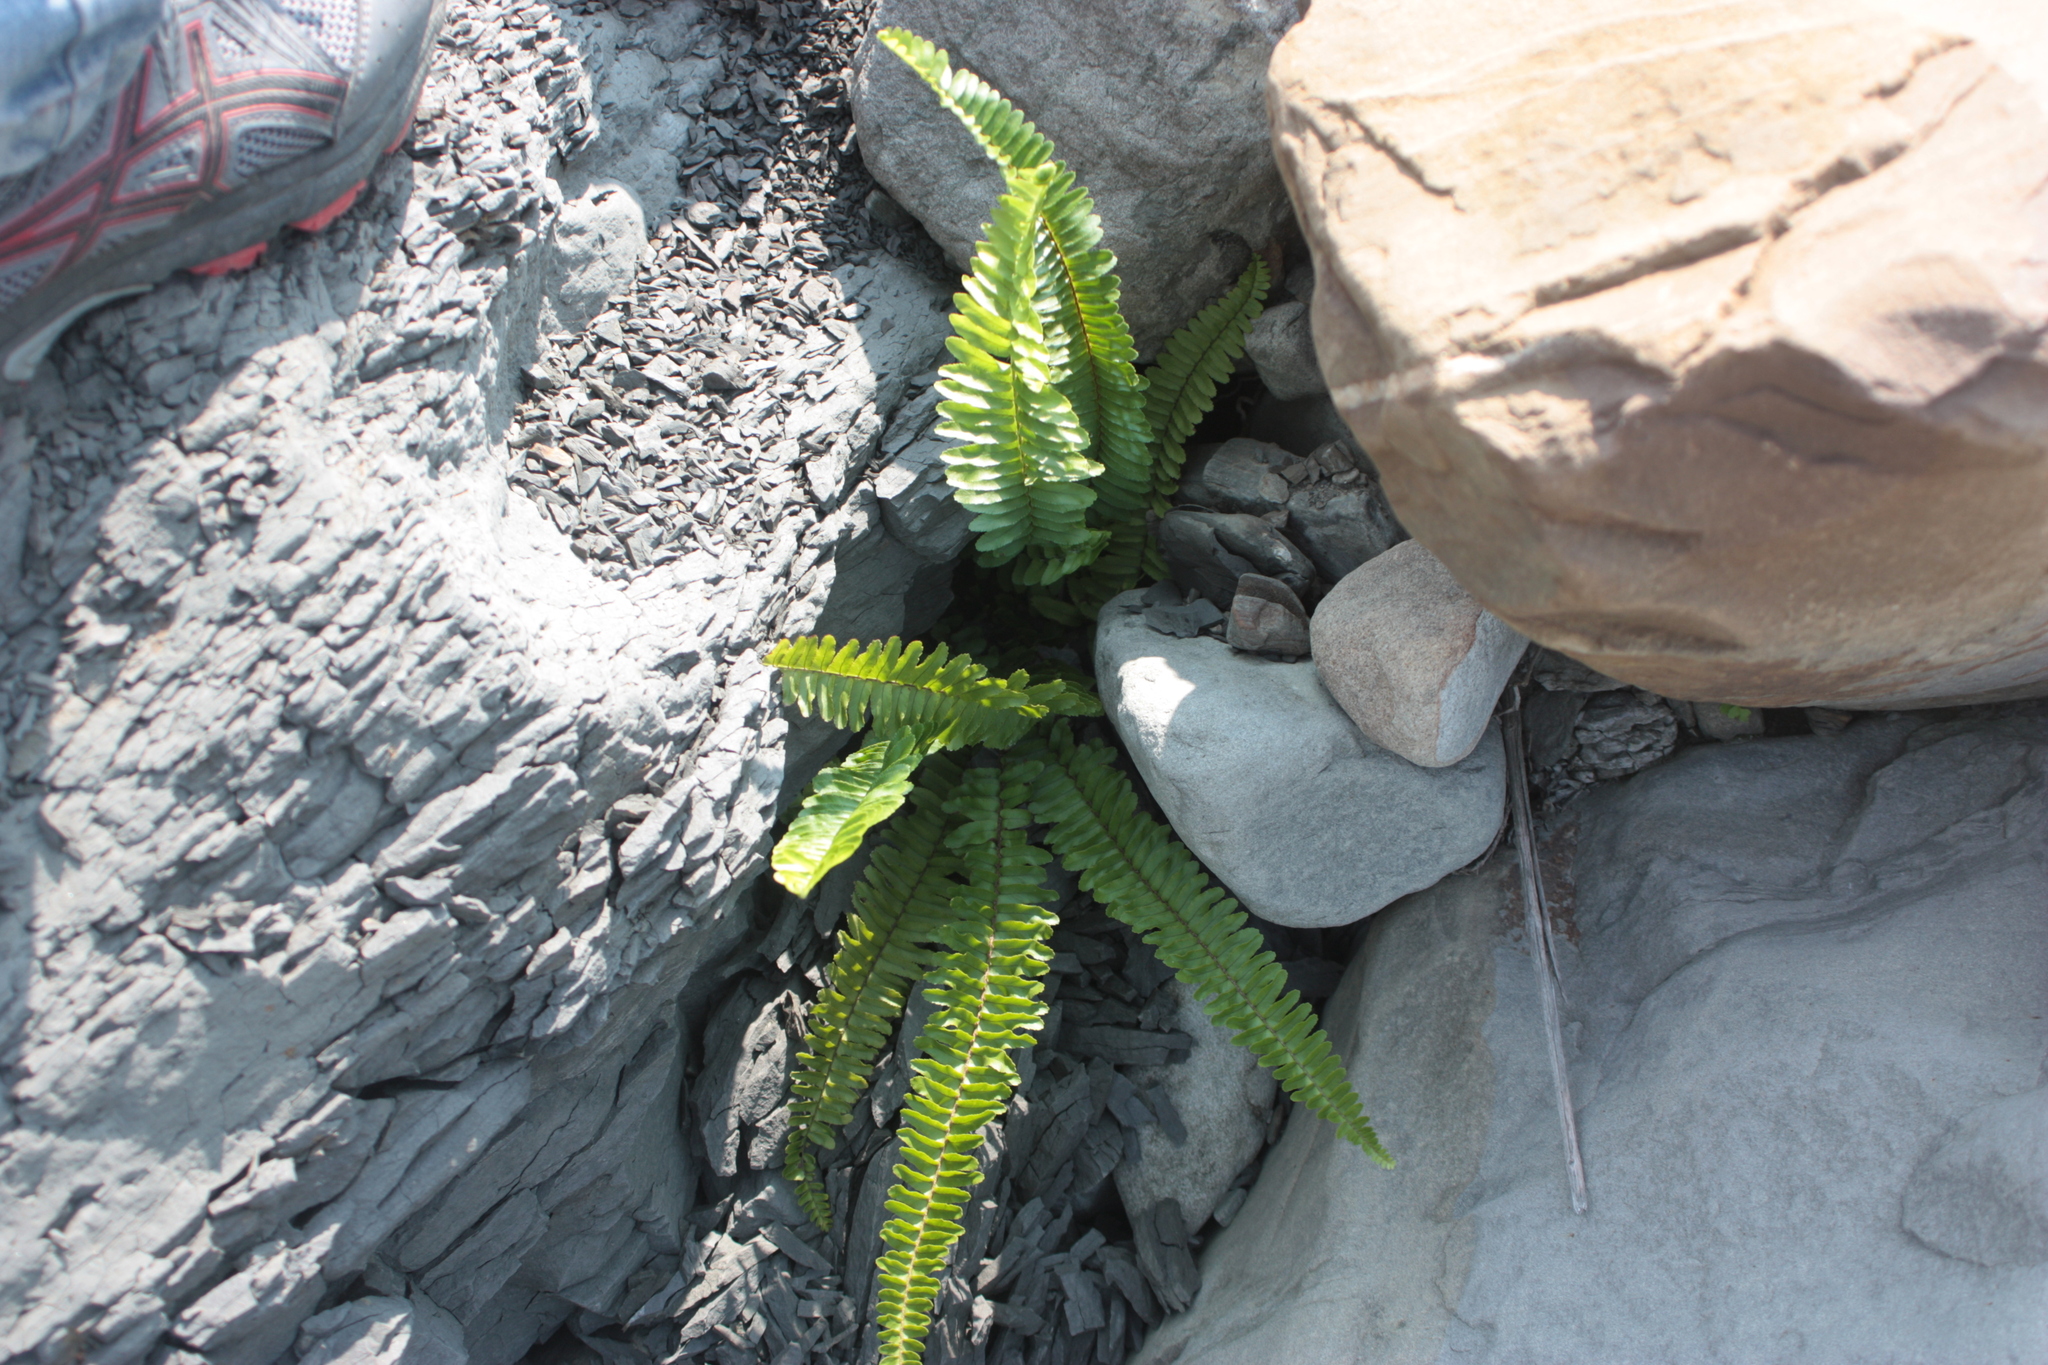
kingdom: Plantae
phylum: Tracheophyta
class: Polypodiopsida
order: Polypodiales
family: Nephrolepidaceae
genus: Nephrolepis
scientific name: Nephrolepis cordifolia
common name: Narrow swordfern
